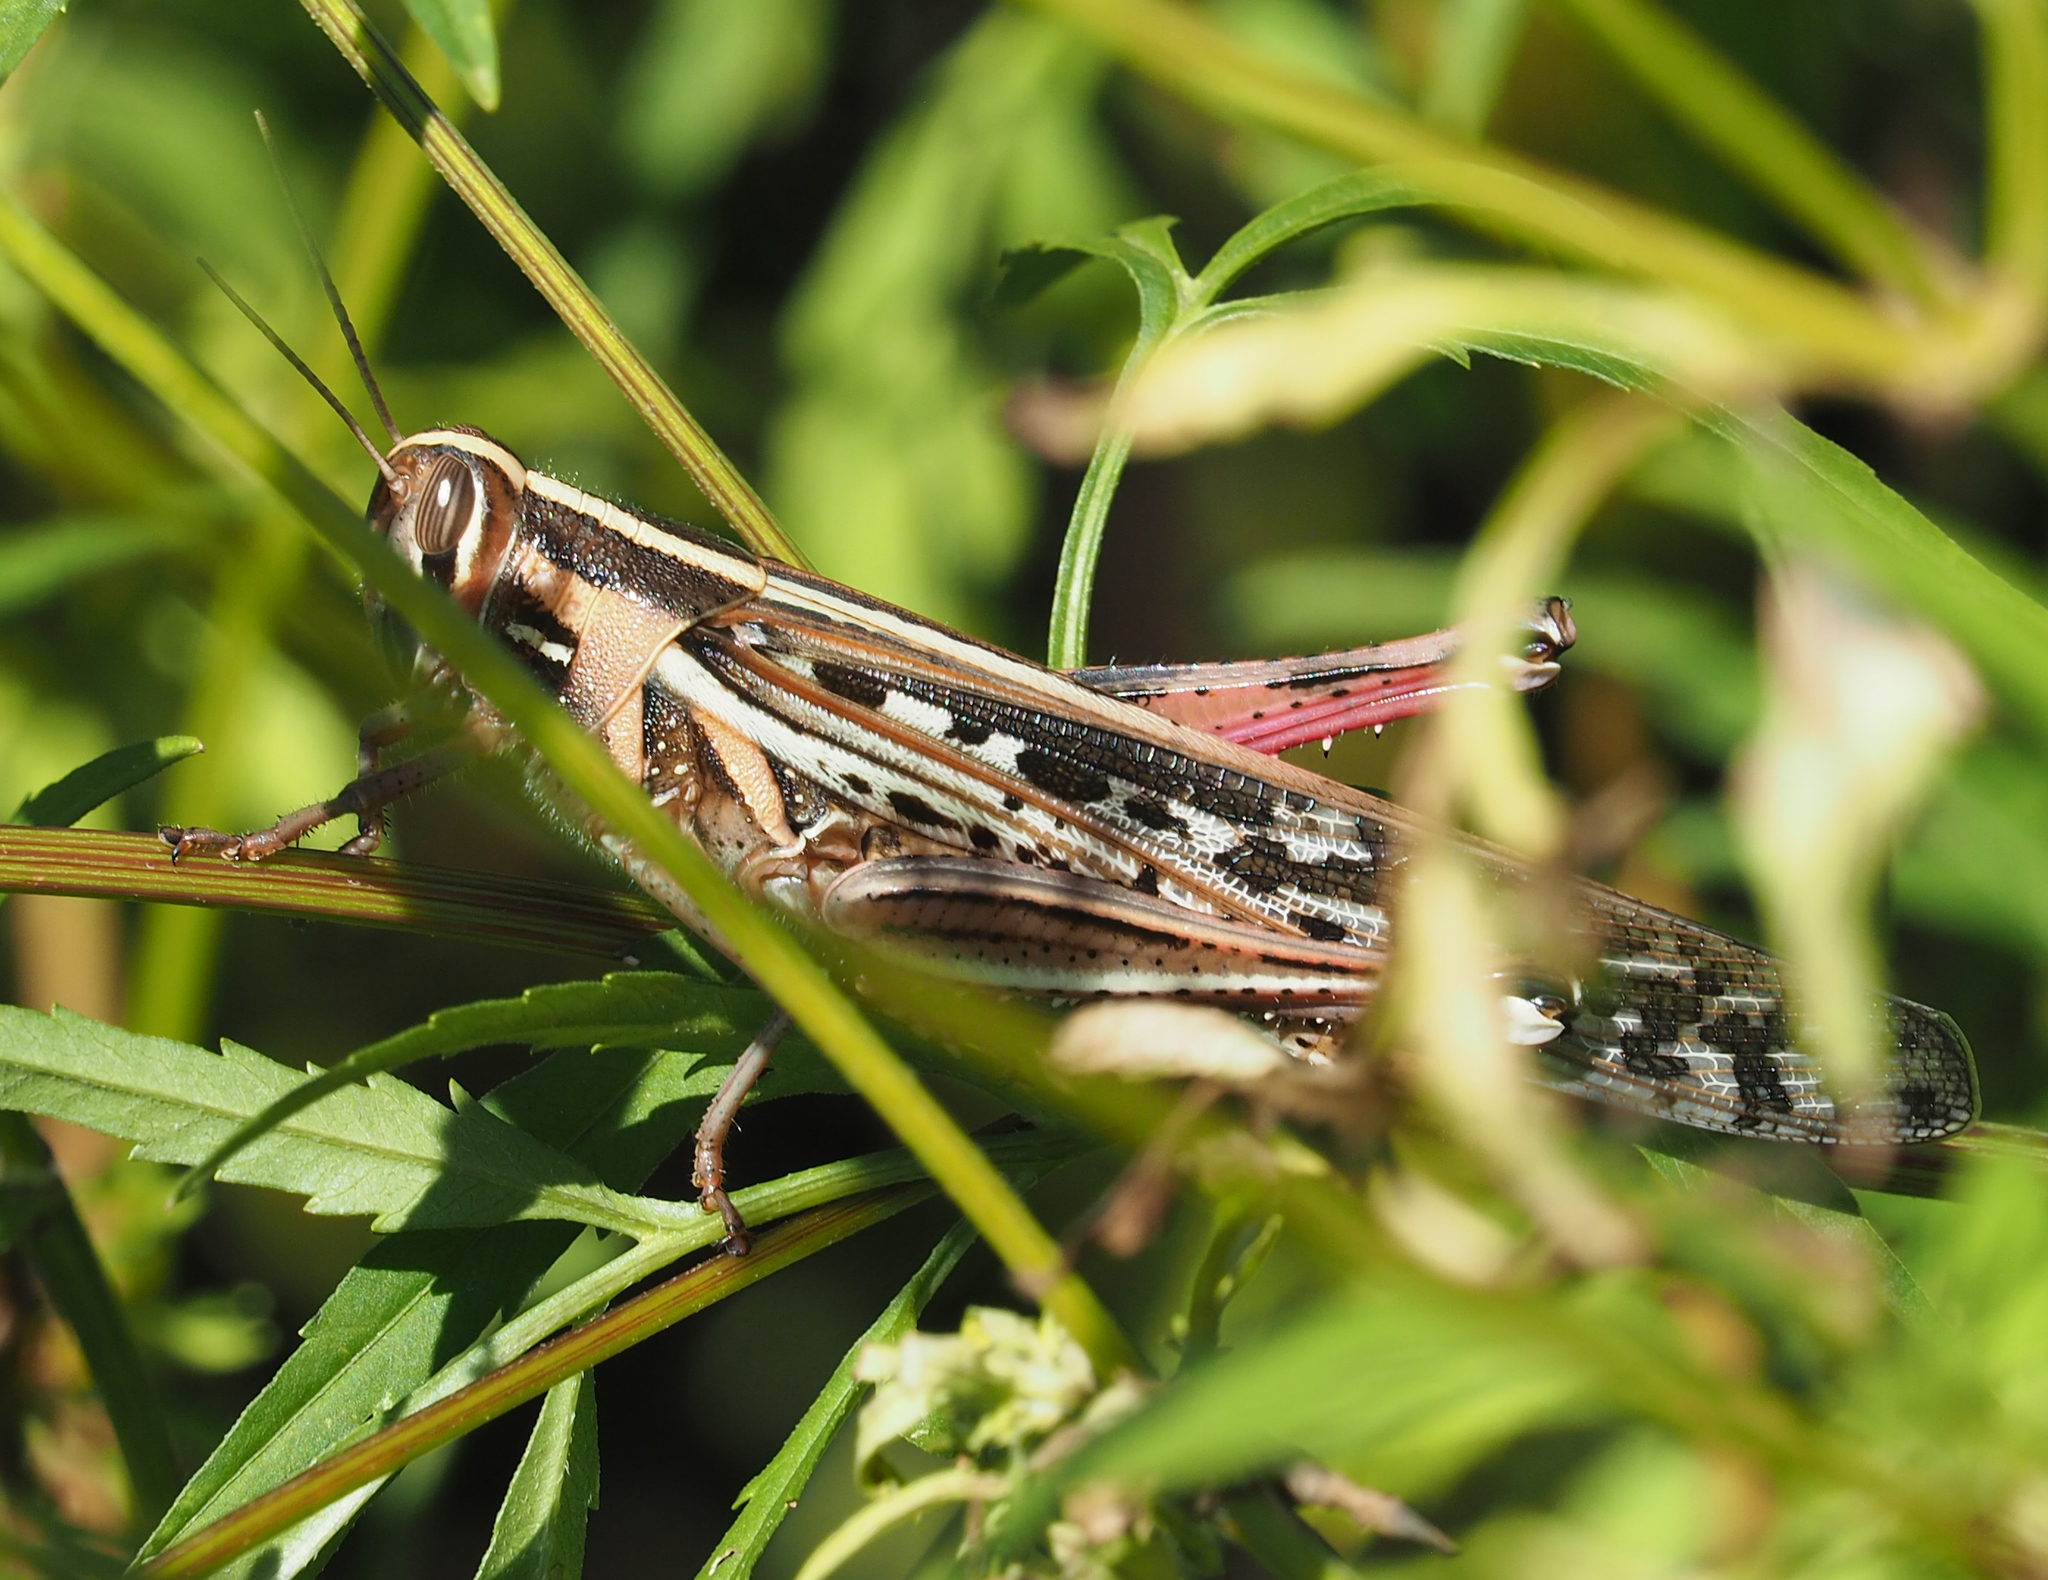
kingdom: Animalia
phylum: Arthropoda
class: Insecta
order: Orthoptera
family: Acrididae
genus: Schistocerca
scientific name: Schistocerca americana
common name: American bird locust
